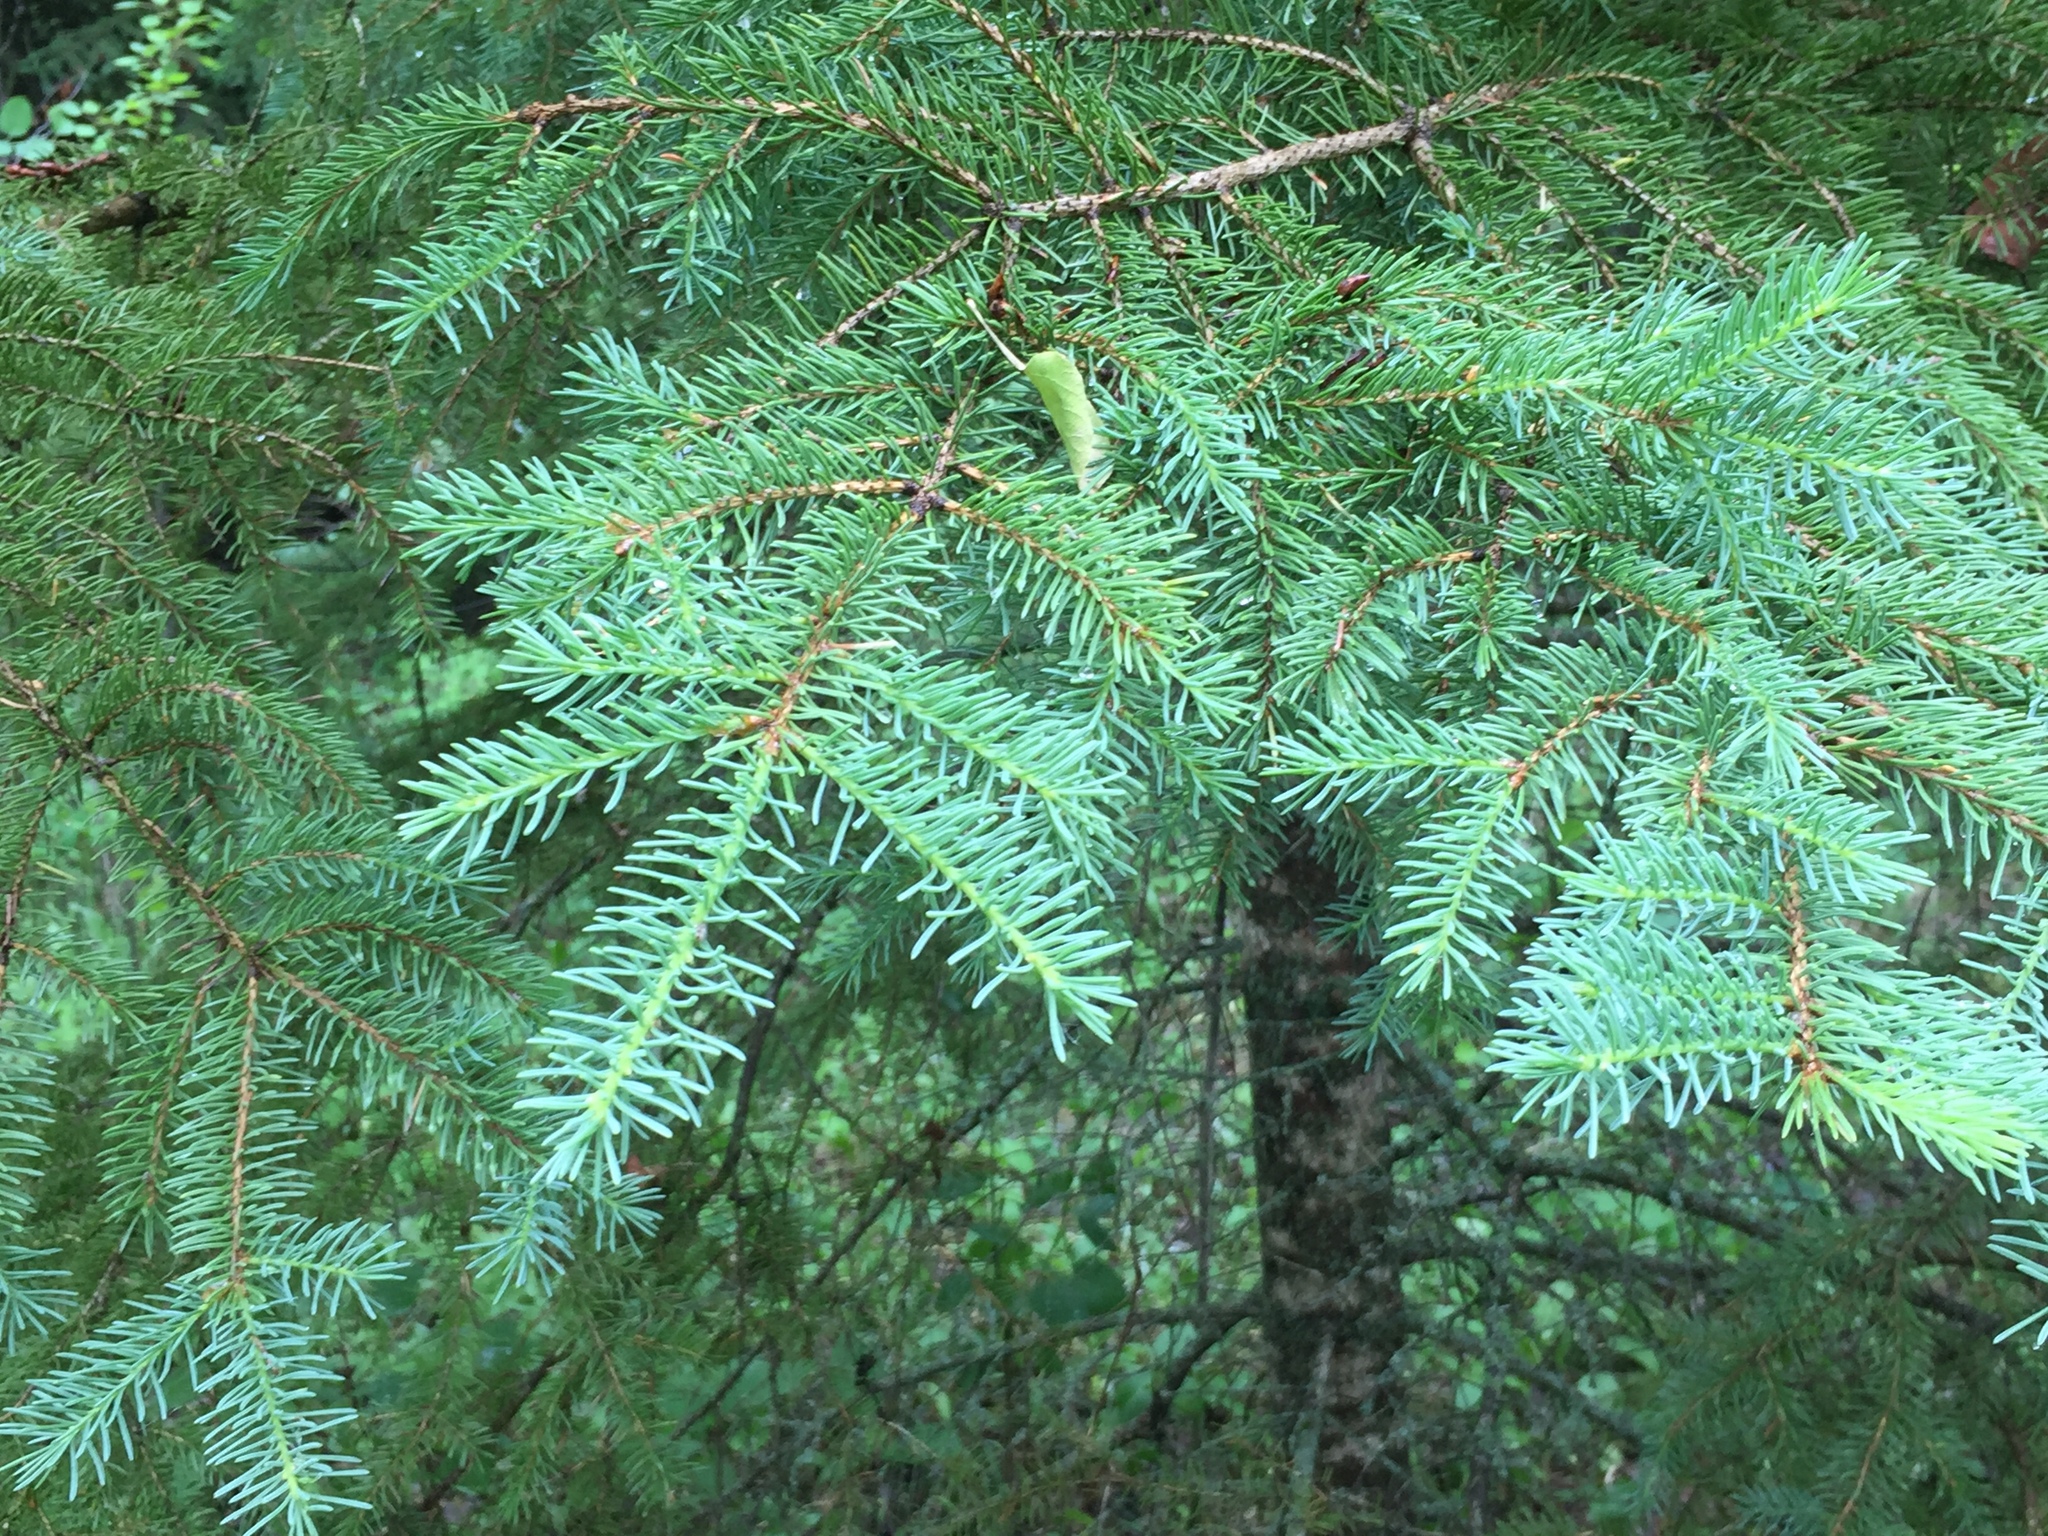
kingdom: Plantae
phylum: Tracheophyta
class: Pinopsida
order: Pinales
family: Pinaceae
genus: Picea
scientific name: Picea glauca
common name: White spruce
